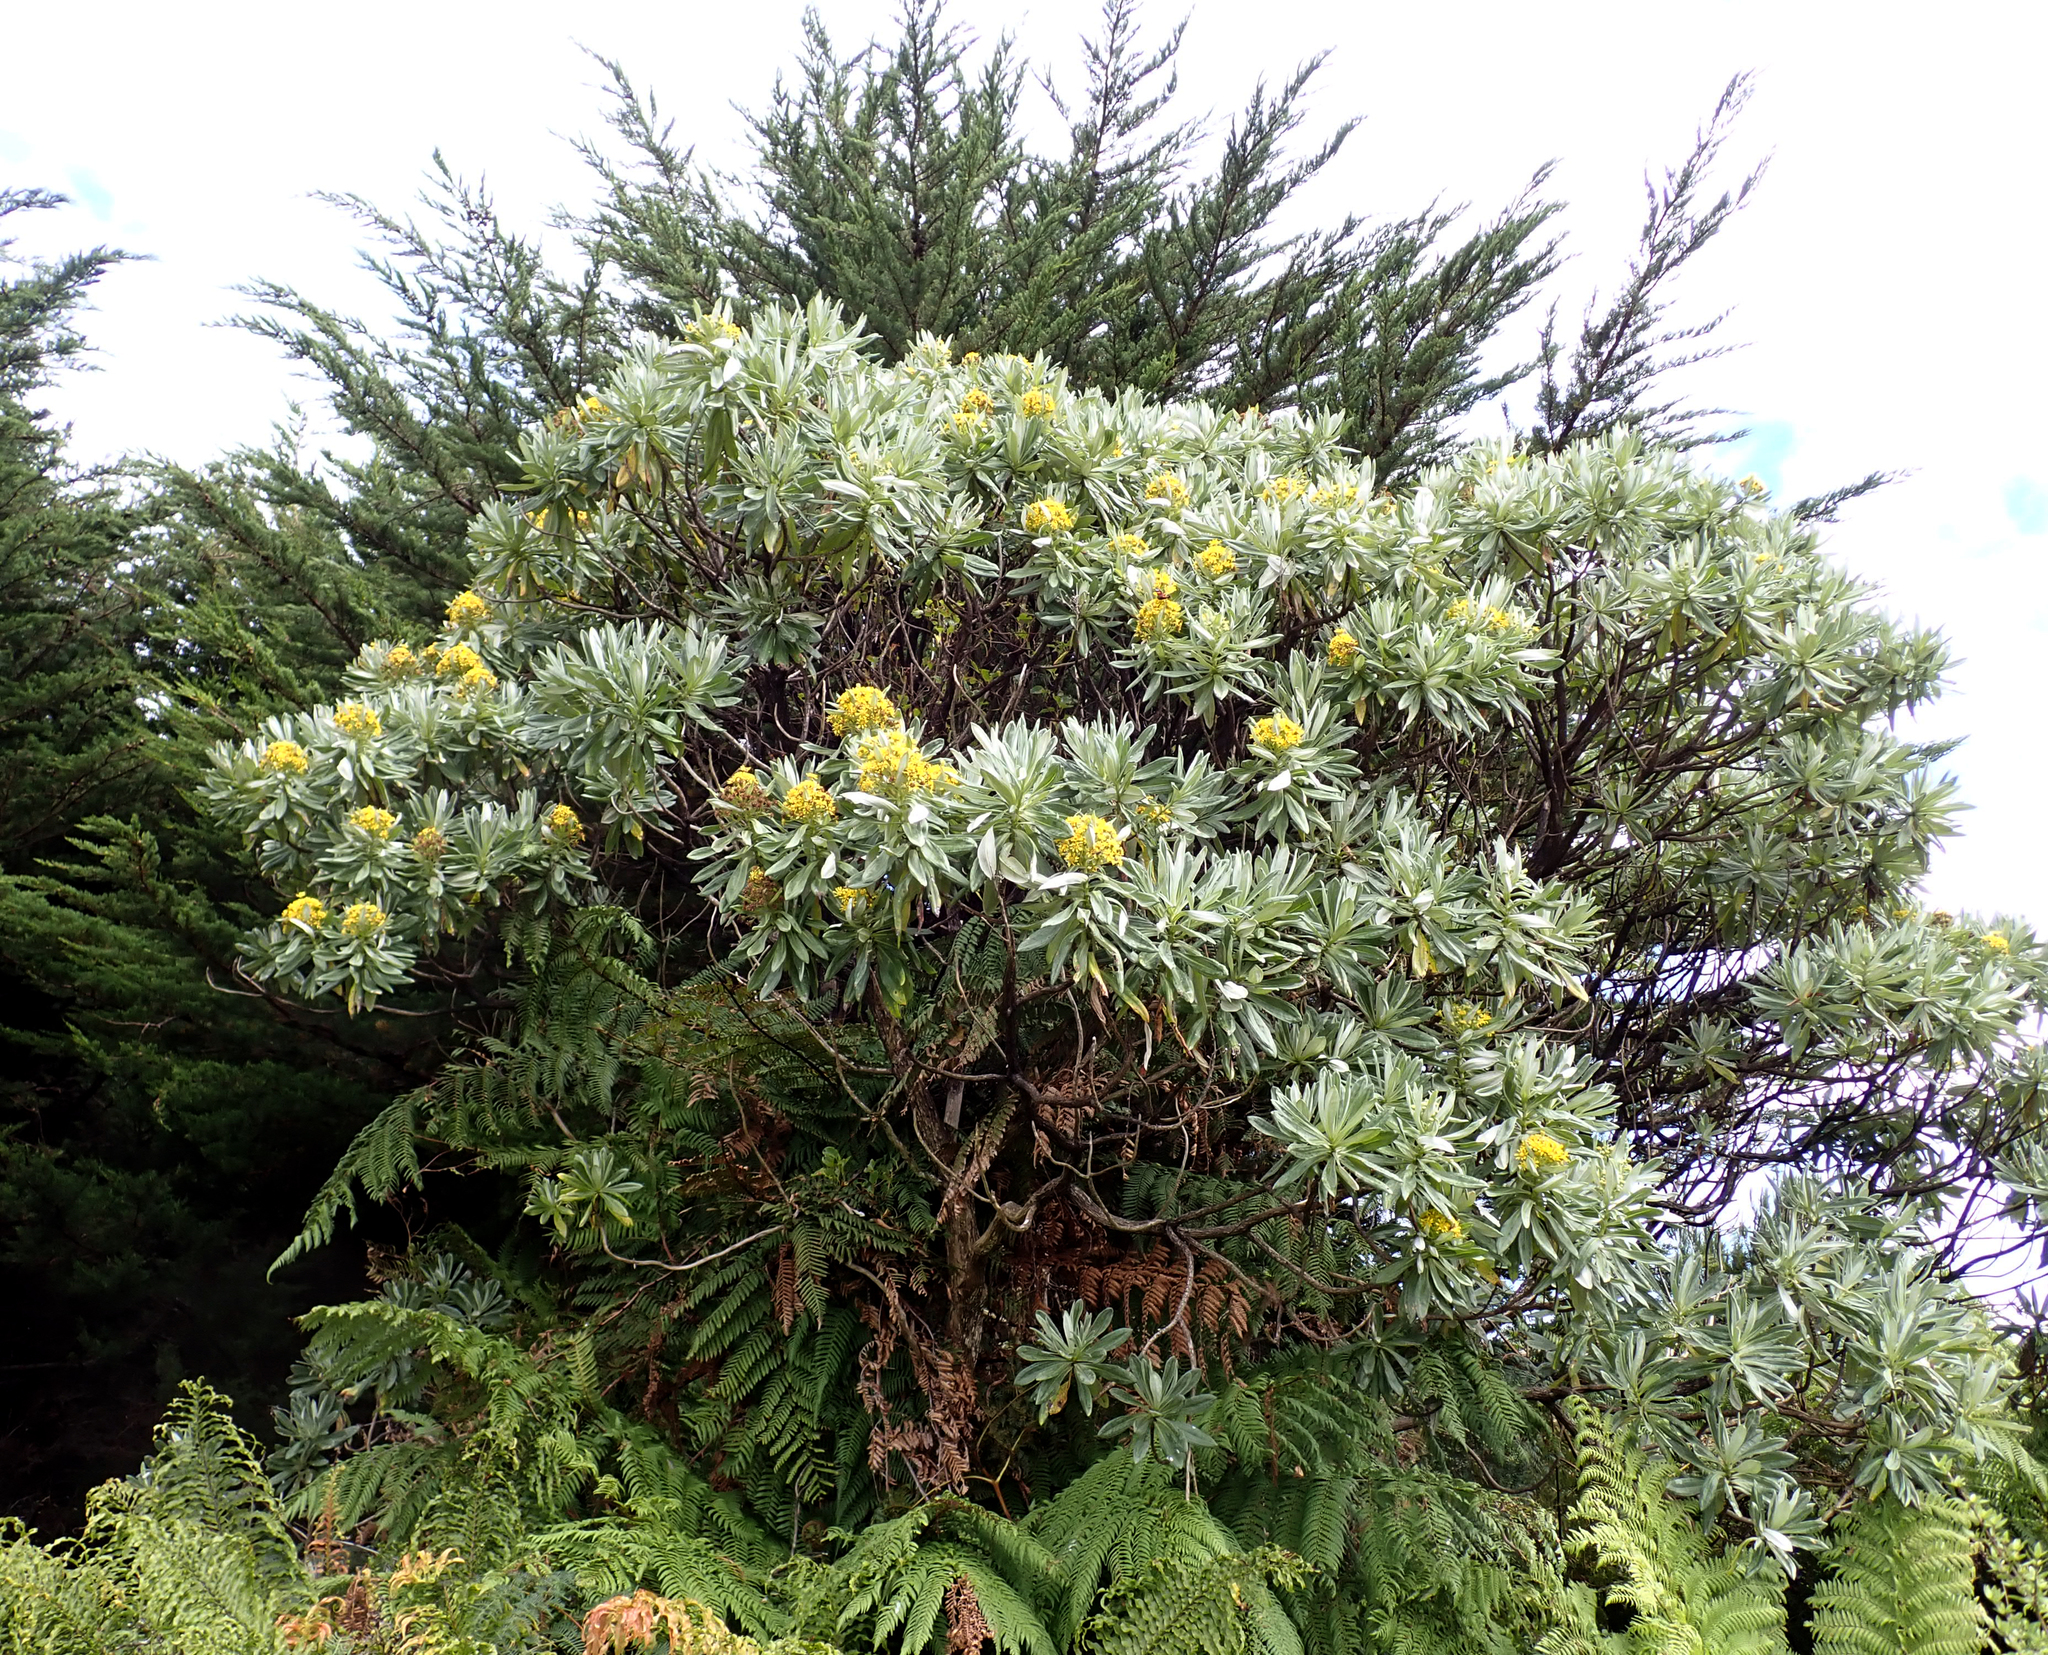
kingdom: Plantae
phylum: Tracheophyta
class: Magnoliopsida
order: Asterales
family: Asteraceae
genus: Brachyglottis
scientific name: Brachyglottis huntii
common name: Chatham island christmas tree
